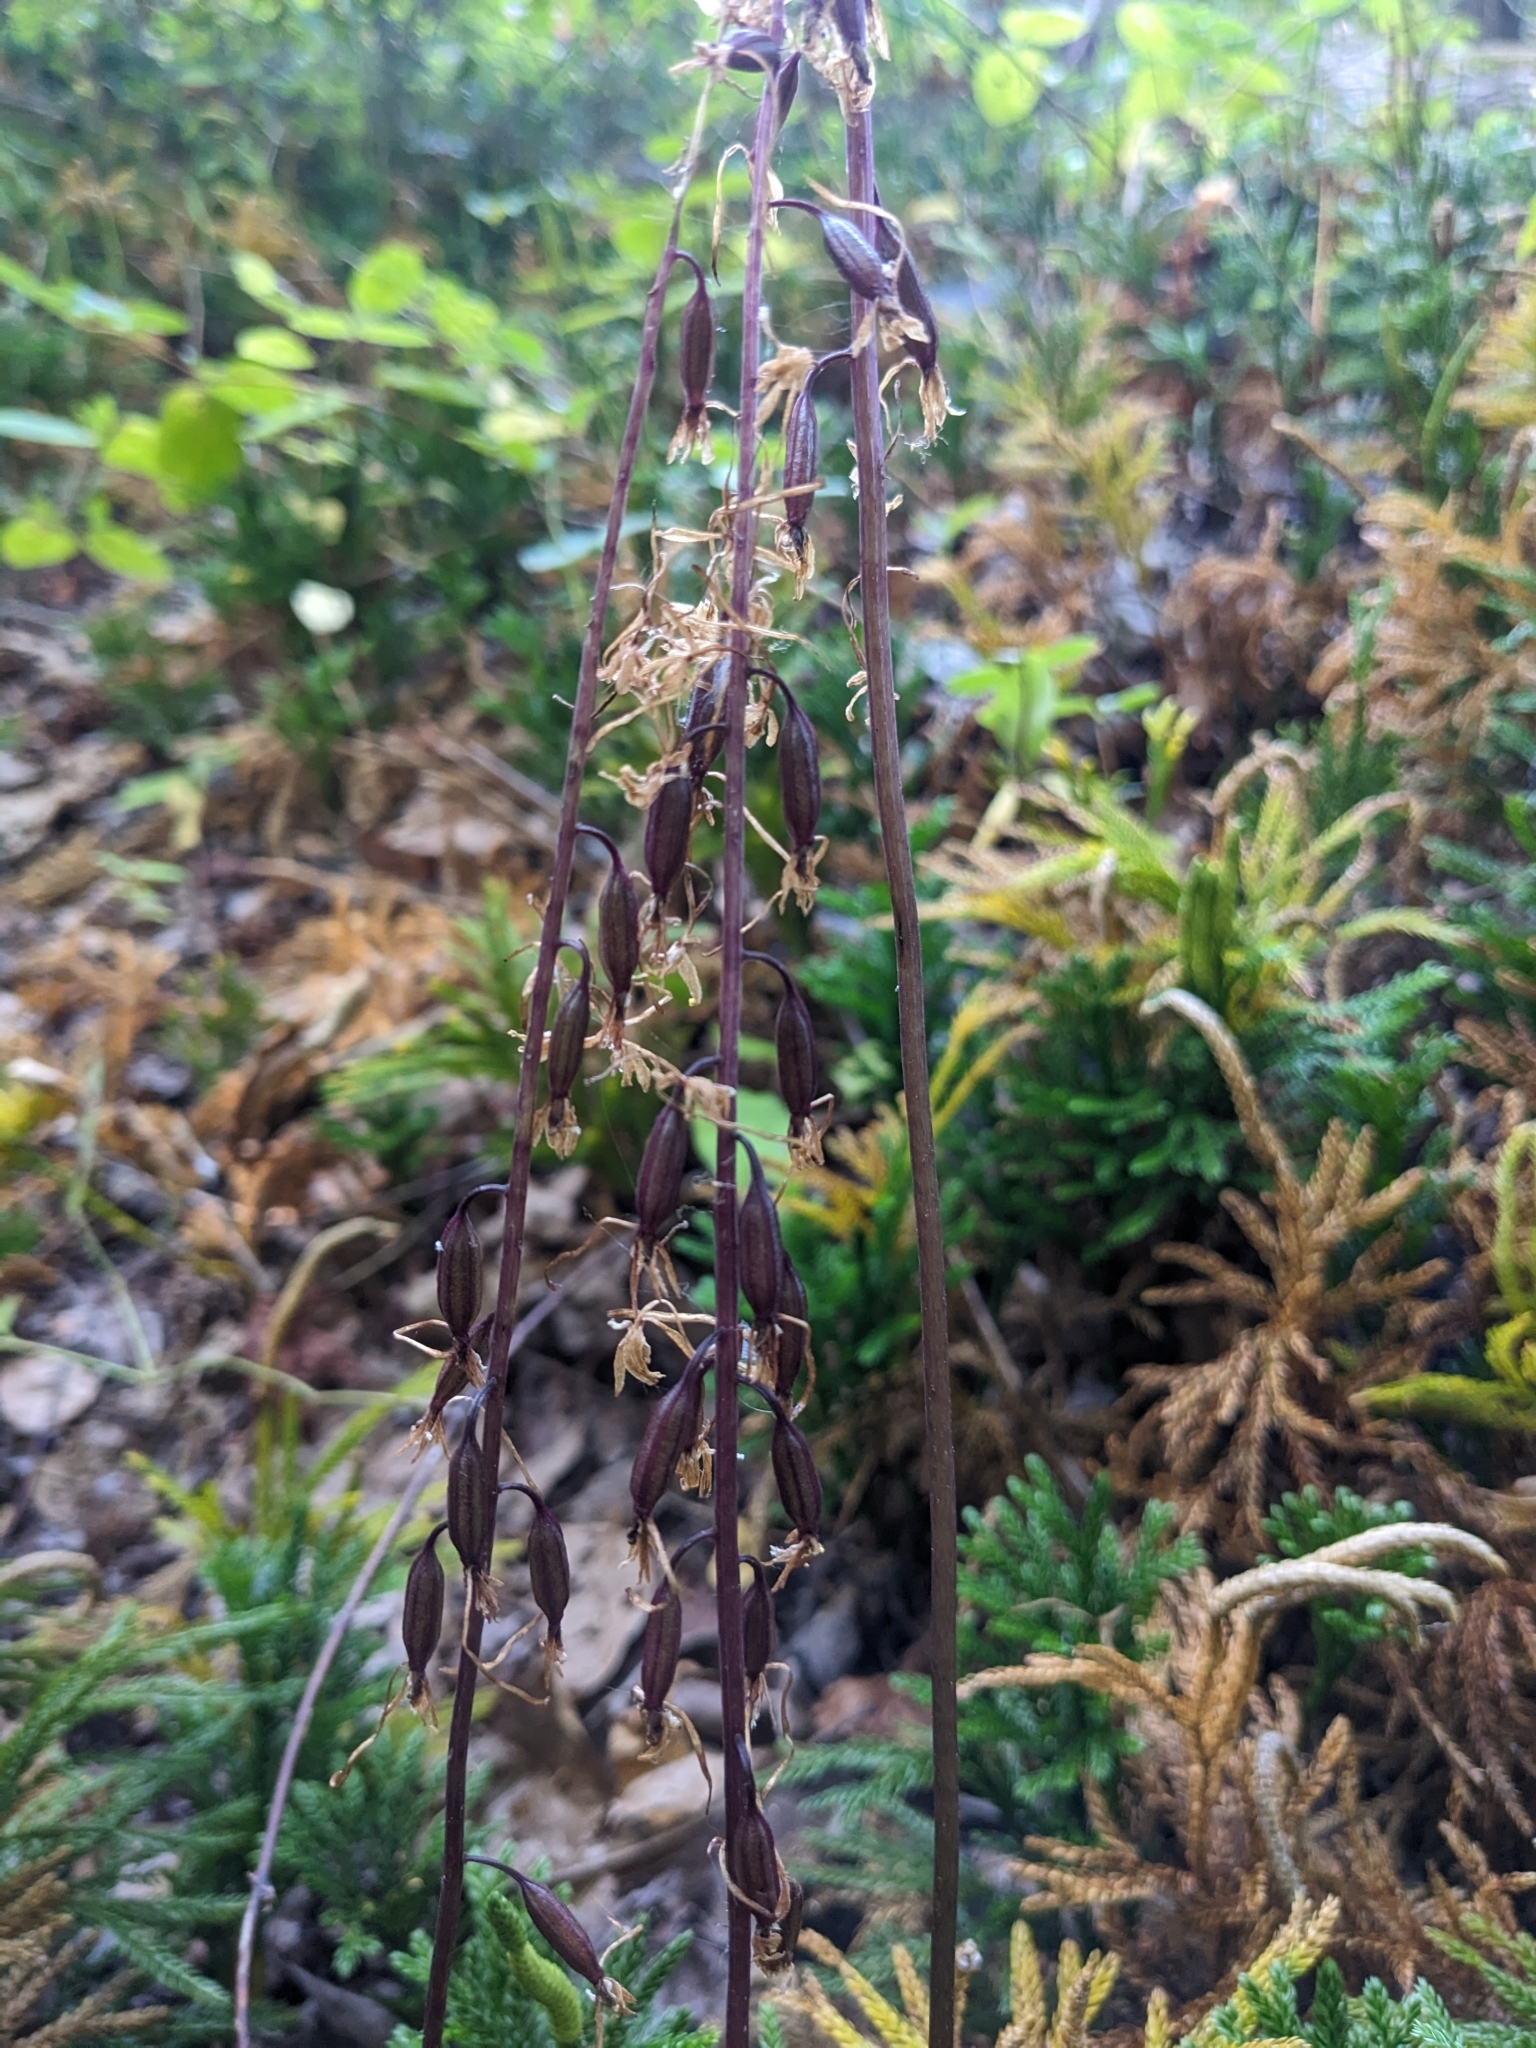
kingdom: Plantae
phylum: Tracheophyta
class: Liliopsida
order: Asparagales
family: Orchidaceae
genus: Tipularia
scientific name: Tipularia discolor
